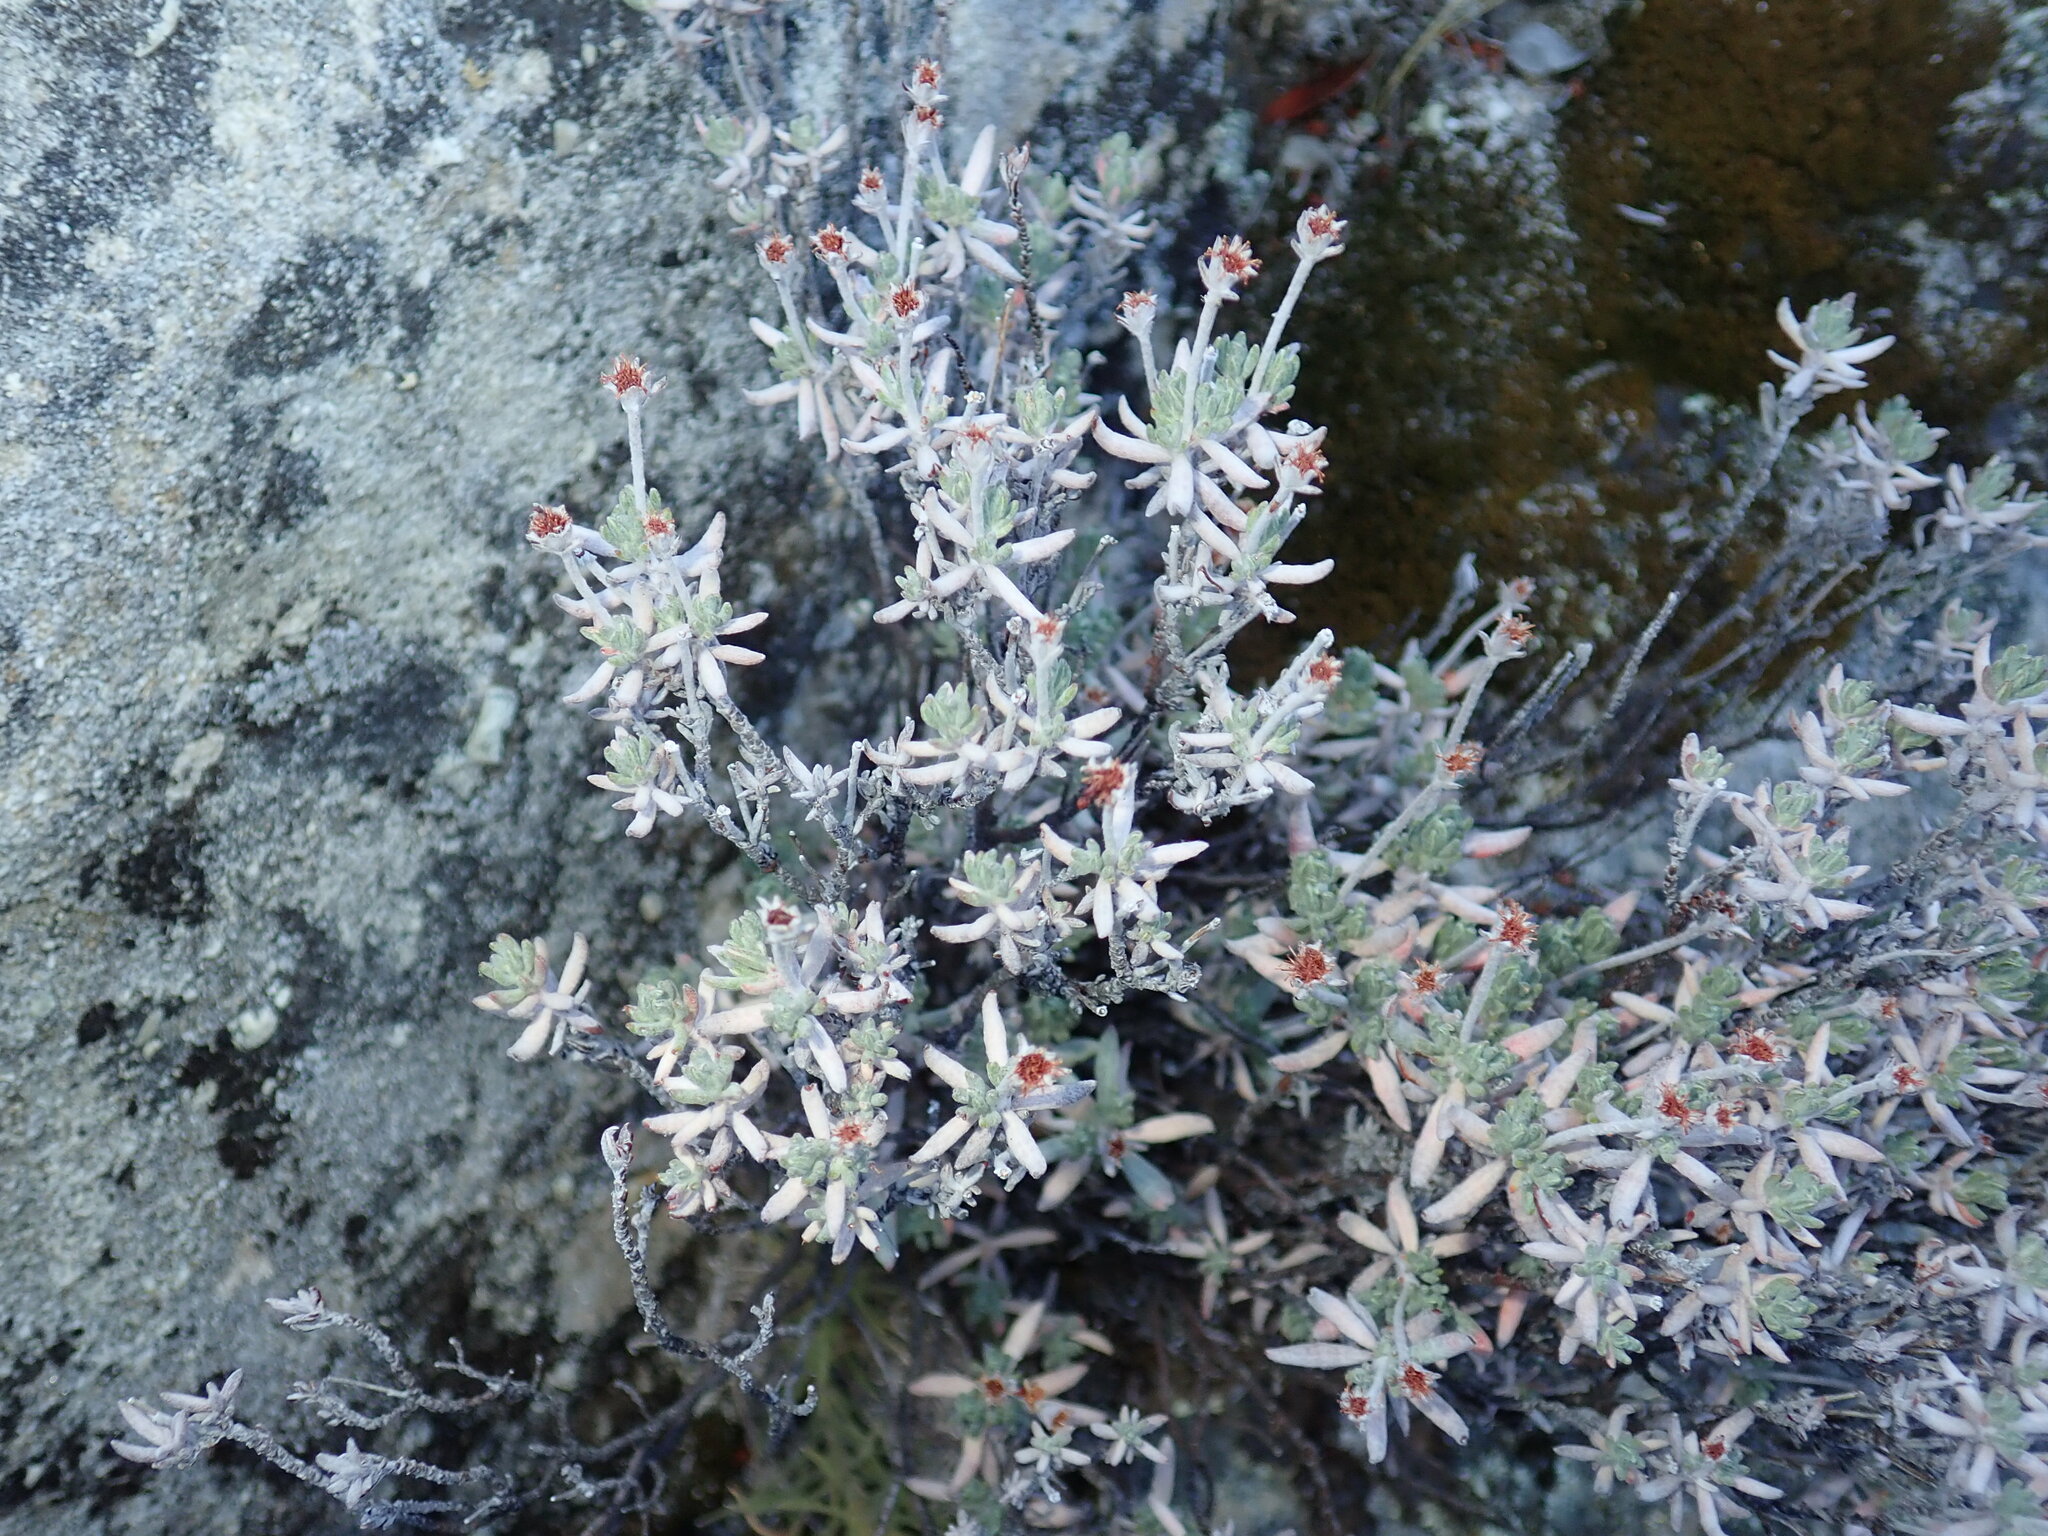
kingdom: Plantae
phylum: Tracheophyta
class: Magnoliopsida
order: Caryophyllales
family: Polygonaceae
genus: Eriogonum
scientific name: Eriogonum butterworthianum
